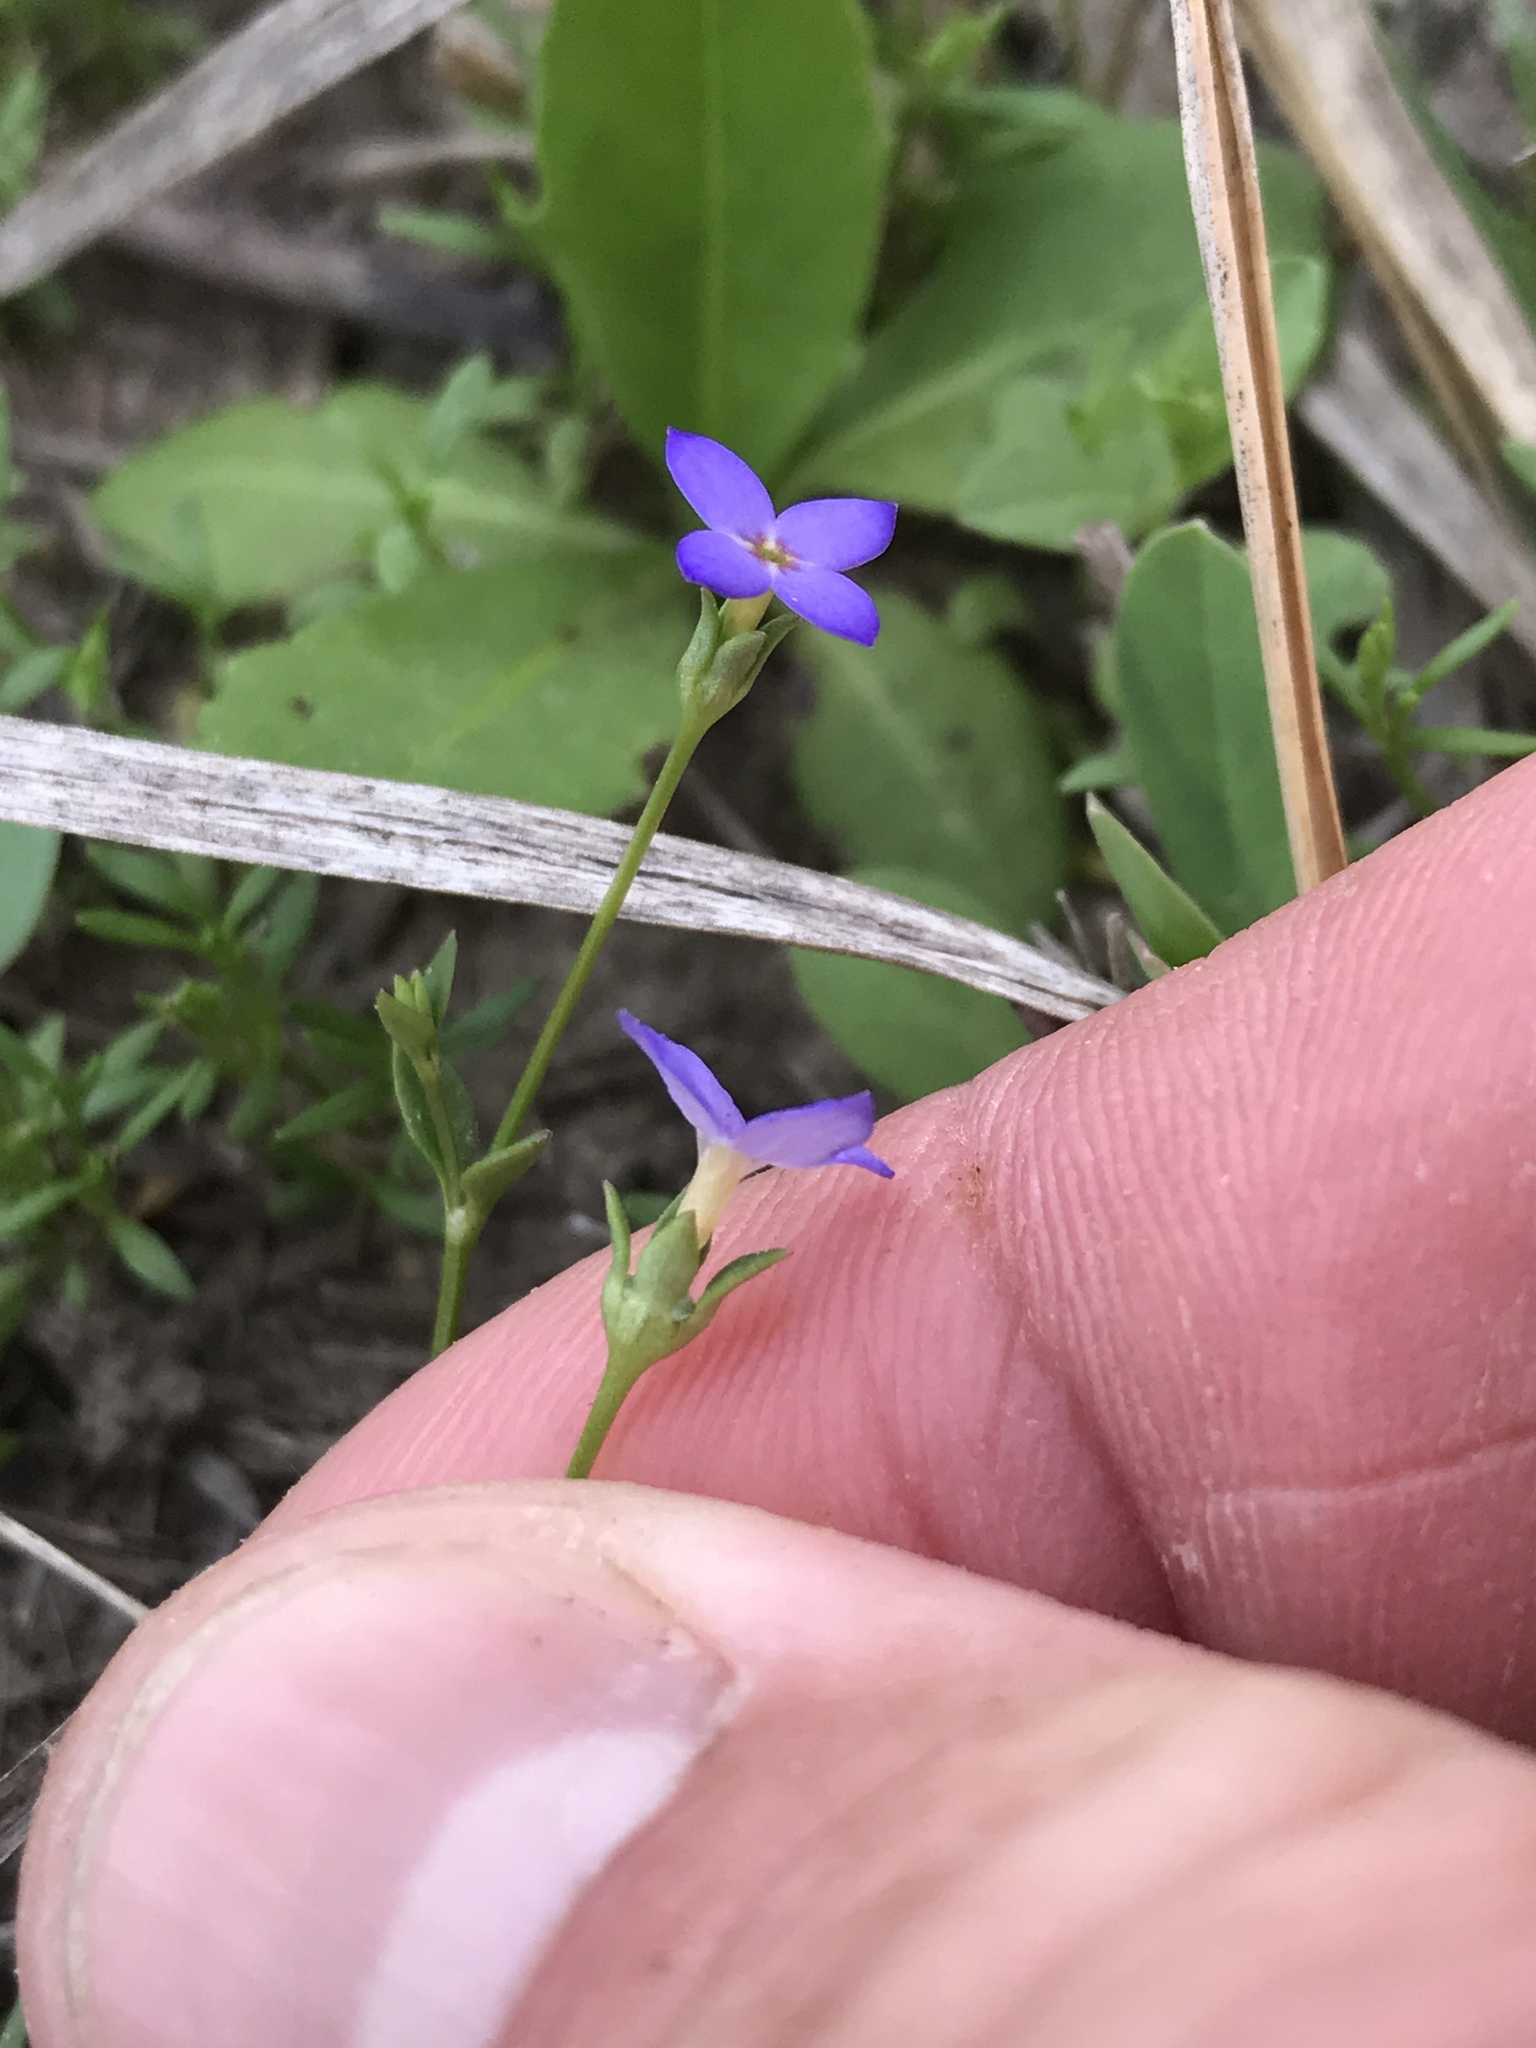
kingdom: Plantae
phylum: Tracheophyta
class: Magnoliopsida
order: Gentianales
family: Rubiaceae
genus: Houstonia
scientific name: Houstonia pusilla
